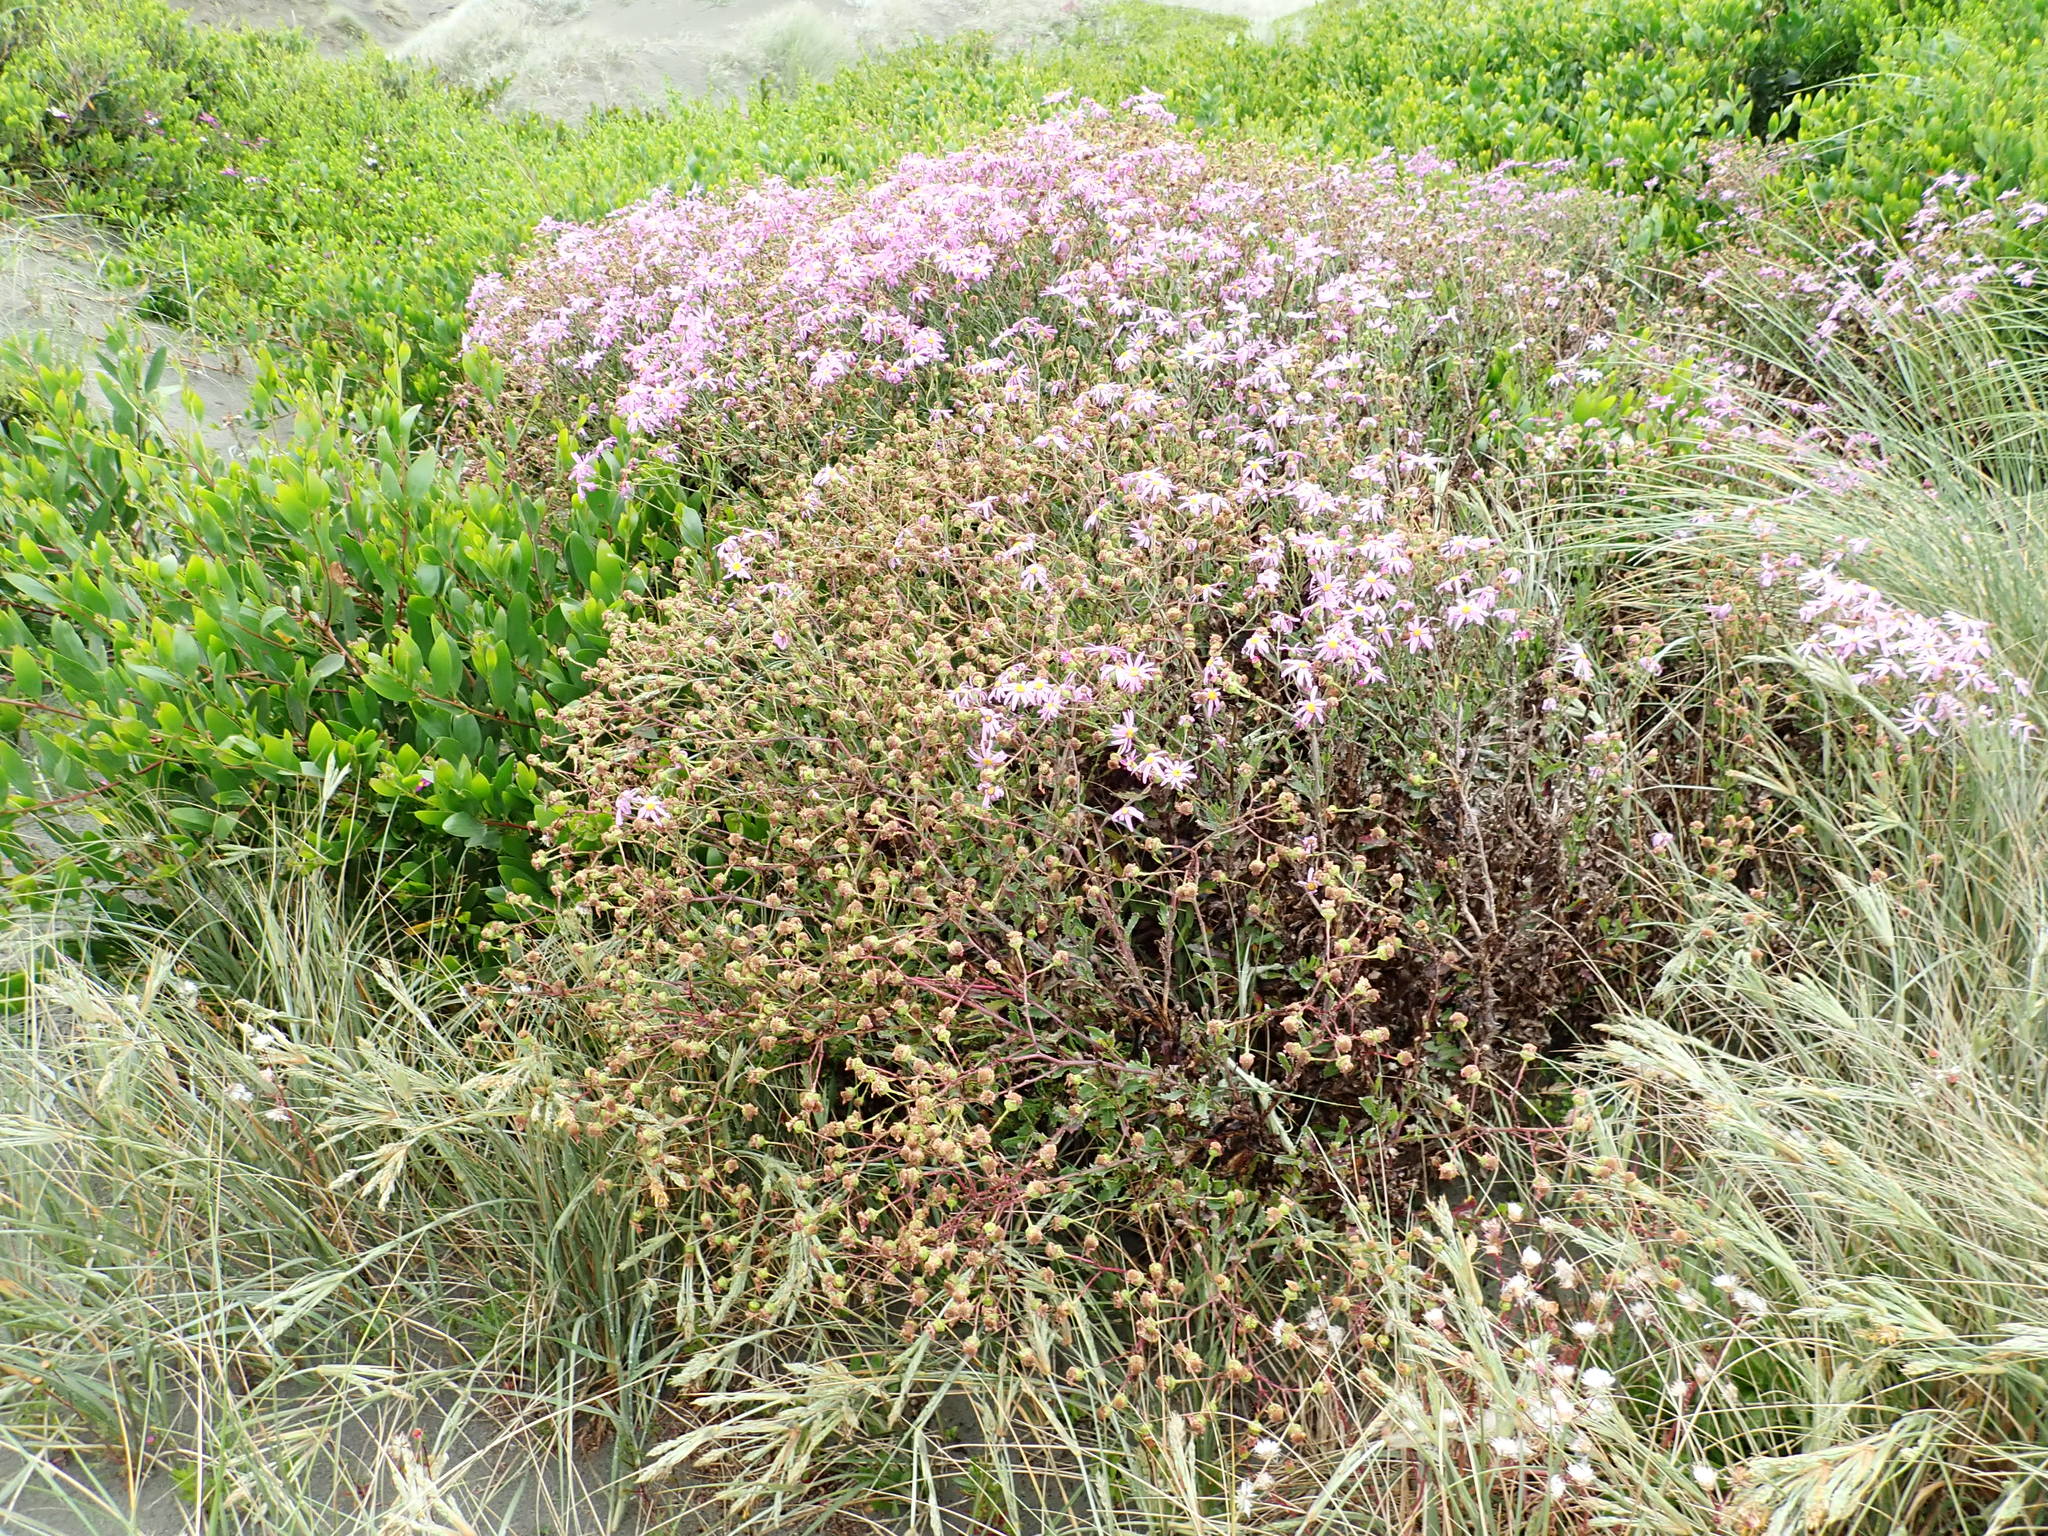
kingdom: Plantae
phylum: Tracheophyta
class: Magnoliopsida
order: Asterales
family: Asteraceae
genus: Senecio
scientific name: Senecio glastifolius
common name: Woad-leaved ragwort
